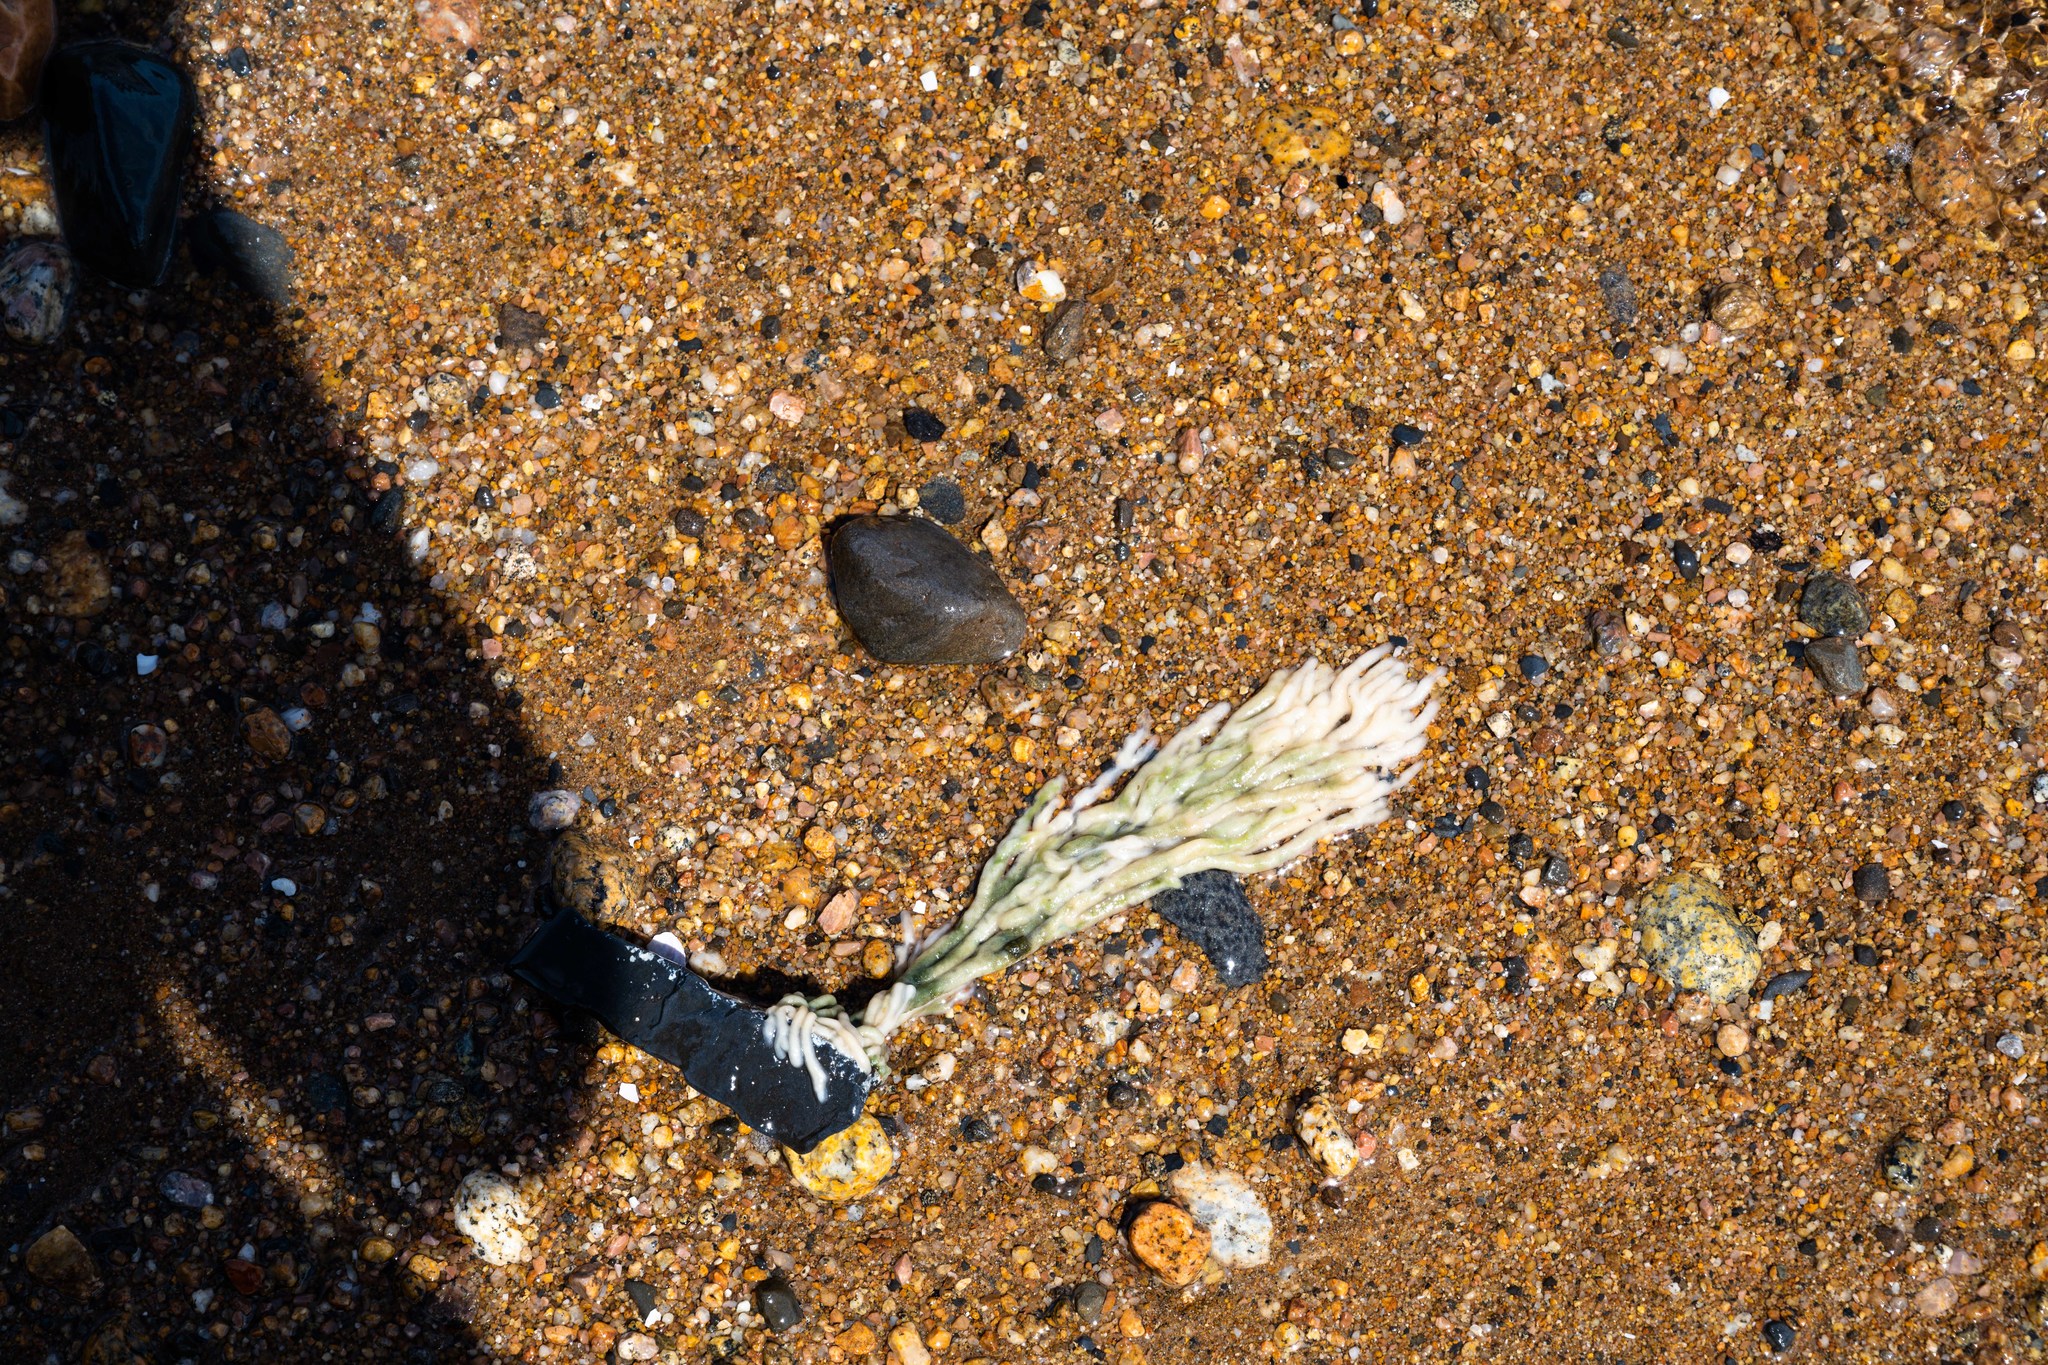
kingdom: Plantae
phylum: Chlorophyta
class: Ulvophyceae
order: Bryopsidales
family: Codiaceae
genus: Codium
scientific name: Codium fragile
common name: Dead man's fingers
